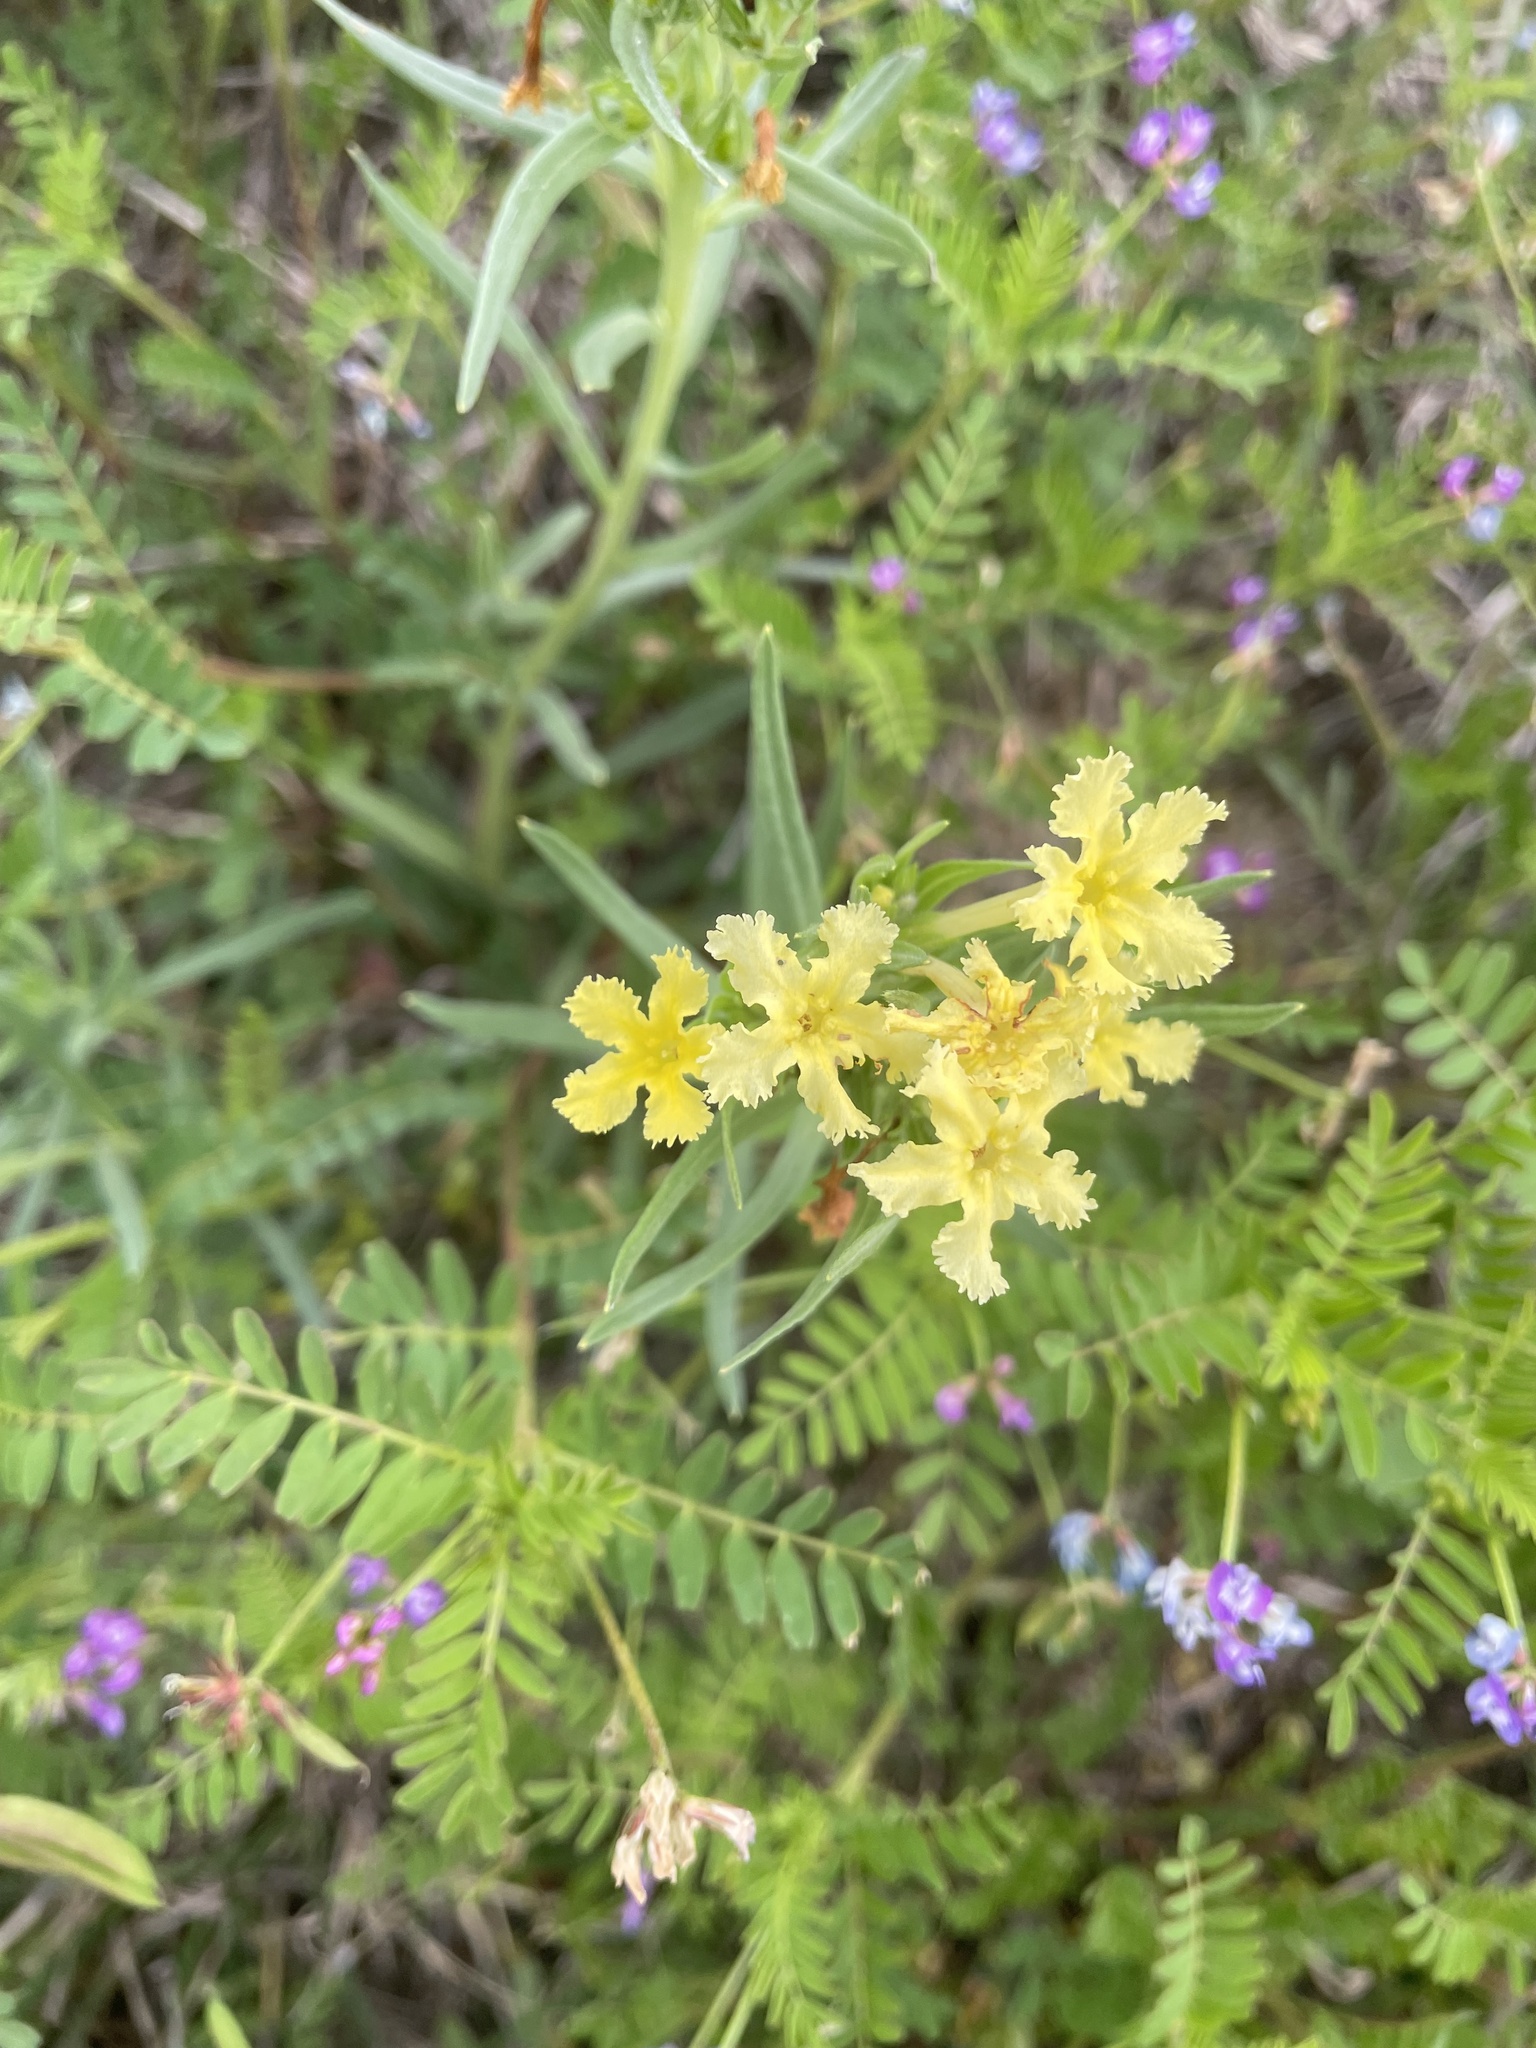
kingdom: Plantae
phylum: Tracheophyta
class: Magnoliopsida
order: Boraginales
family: Boraginaceae
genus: Lithospermum
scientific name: Lithospermum incisum
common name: Fringed gromwell
